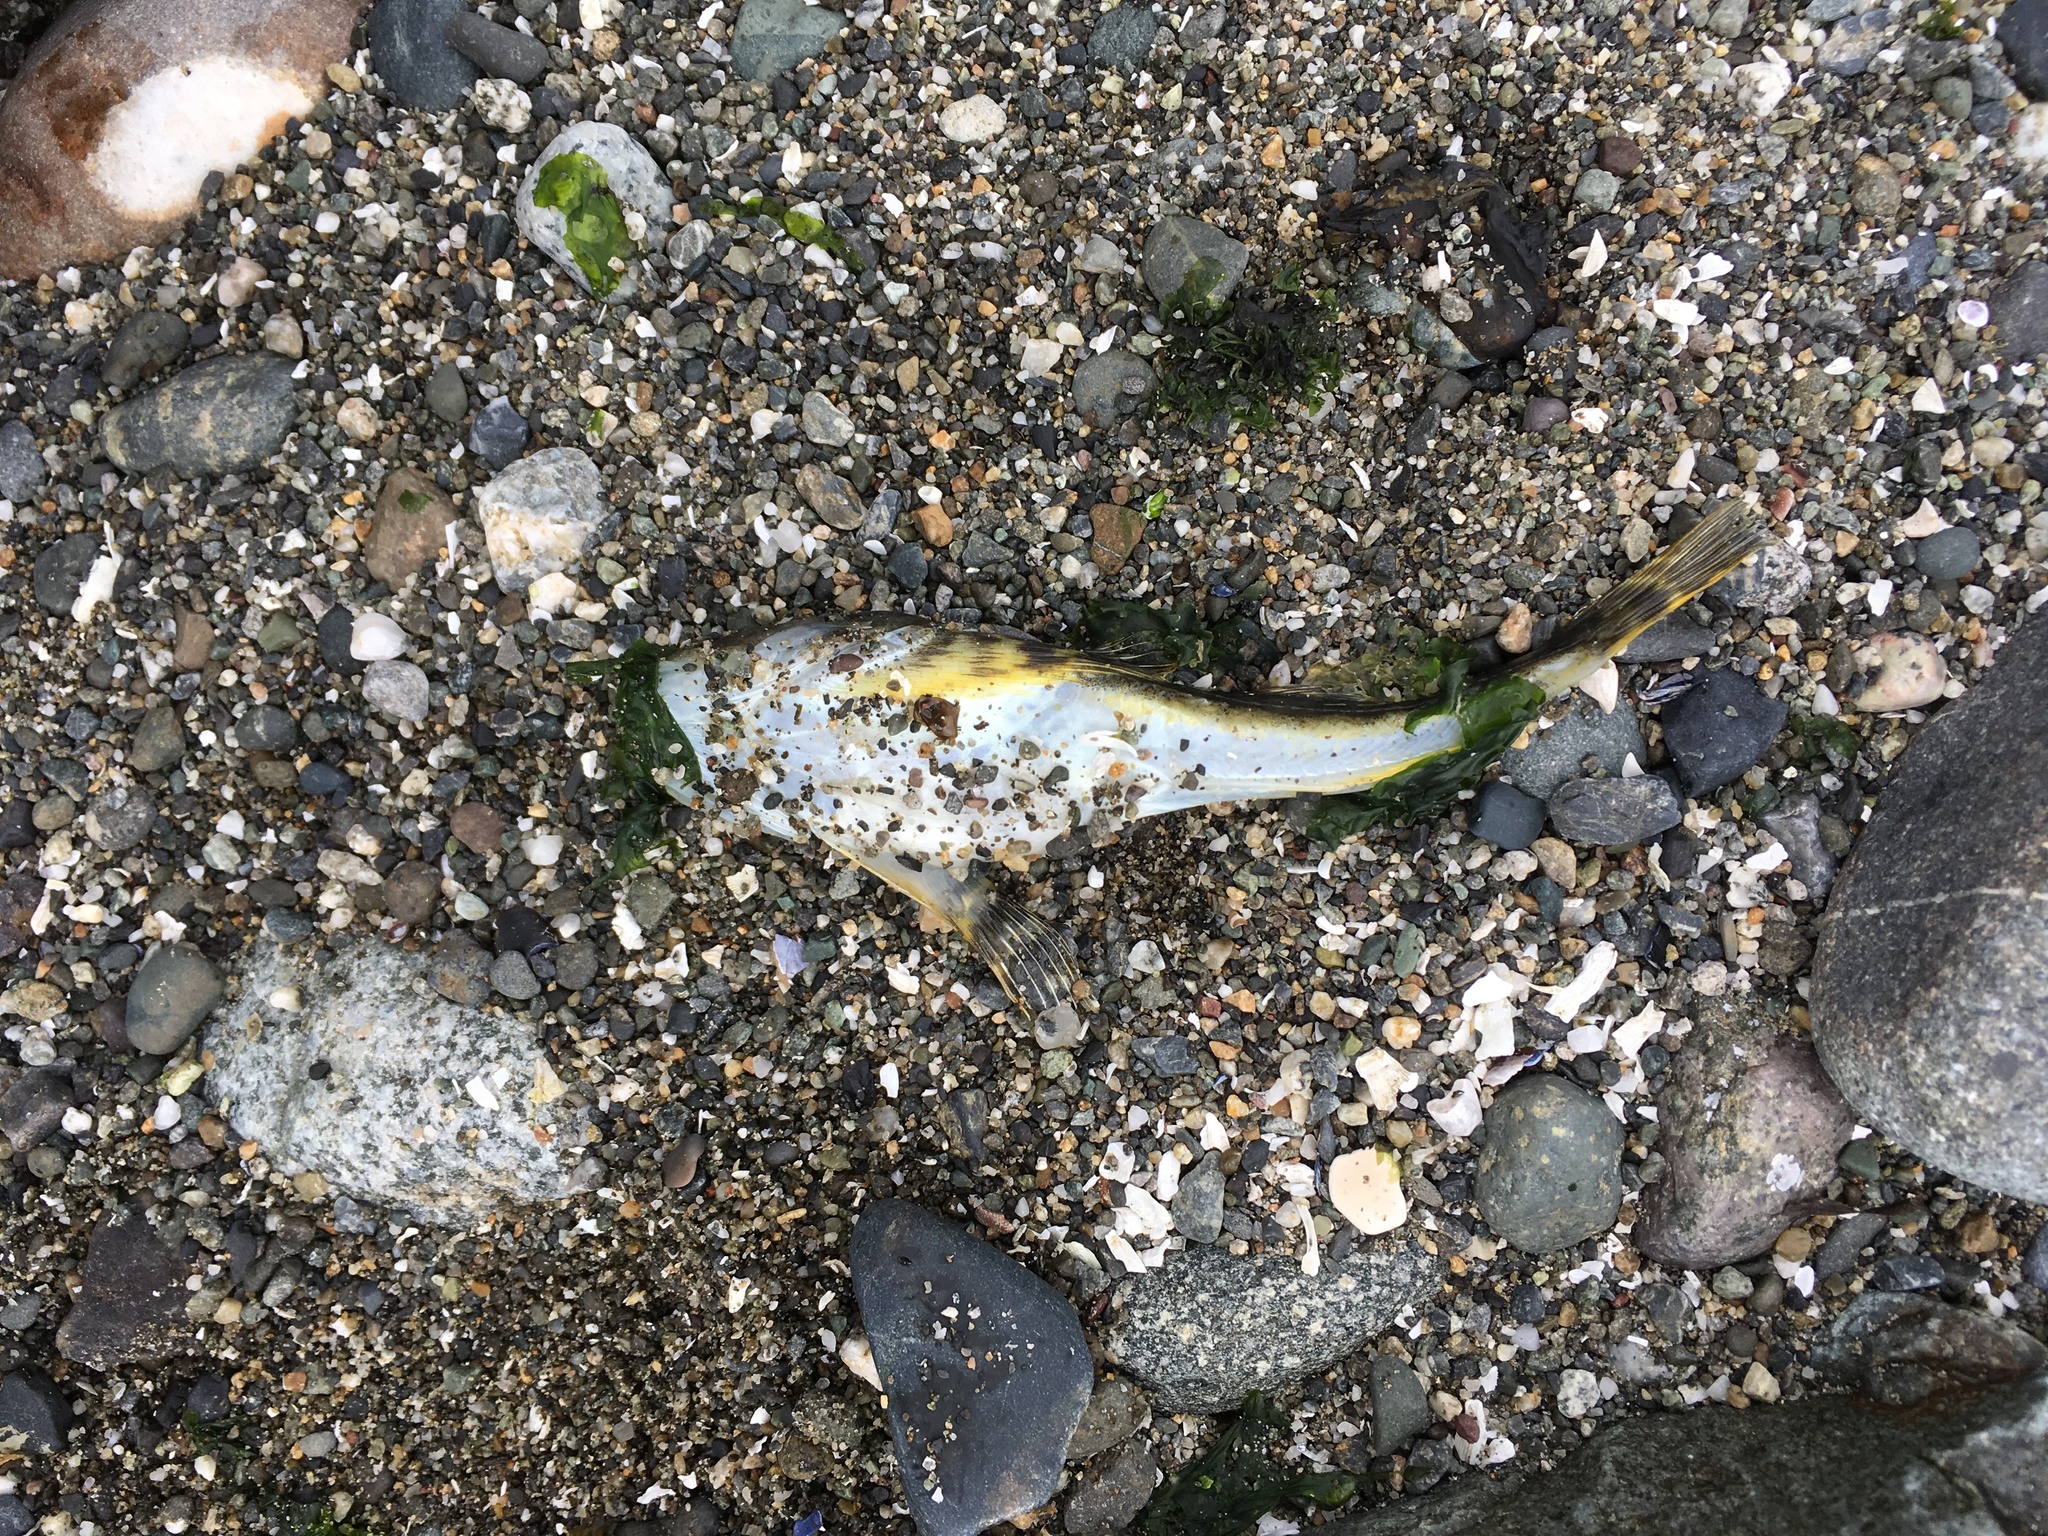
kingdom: Animalia
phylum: Chordata
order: Scorpaeniformes
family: Cottidae
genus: Leptocottus
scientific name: Leptocottus armatus
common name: Pacific staghorn sculpin
